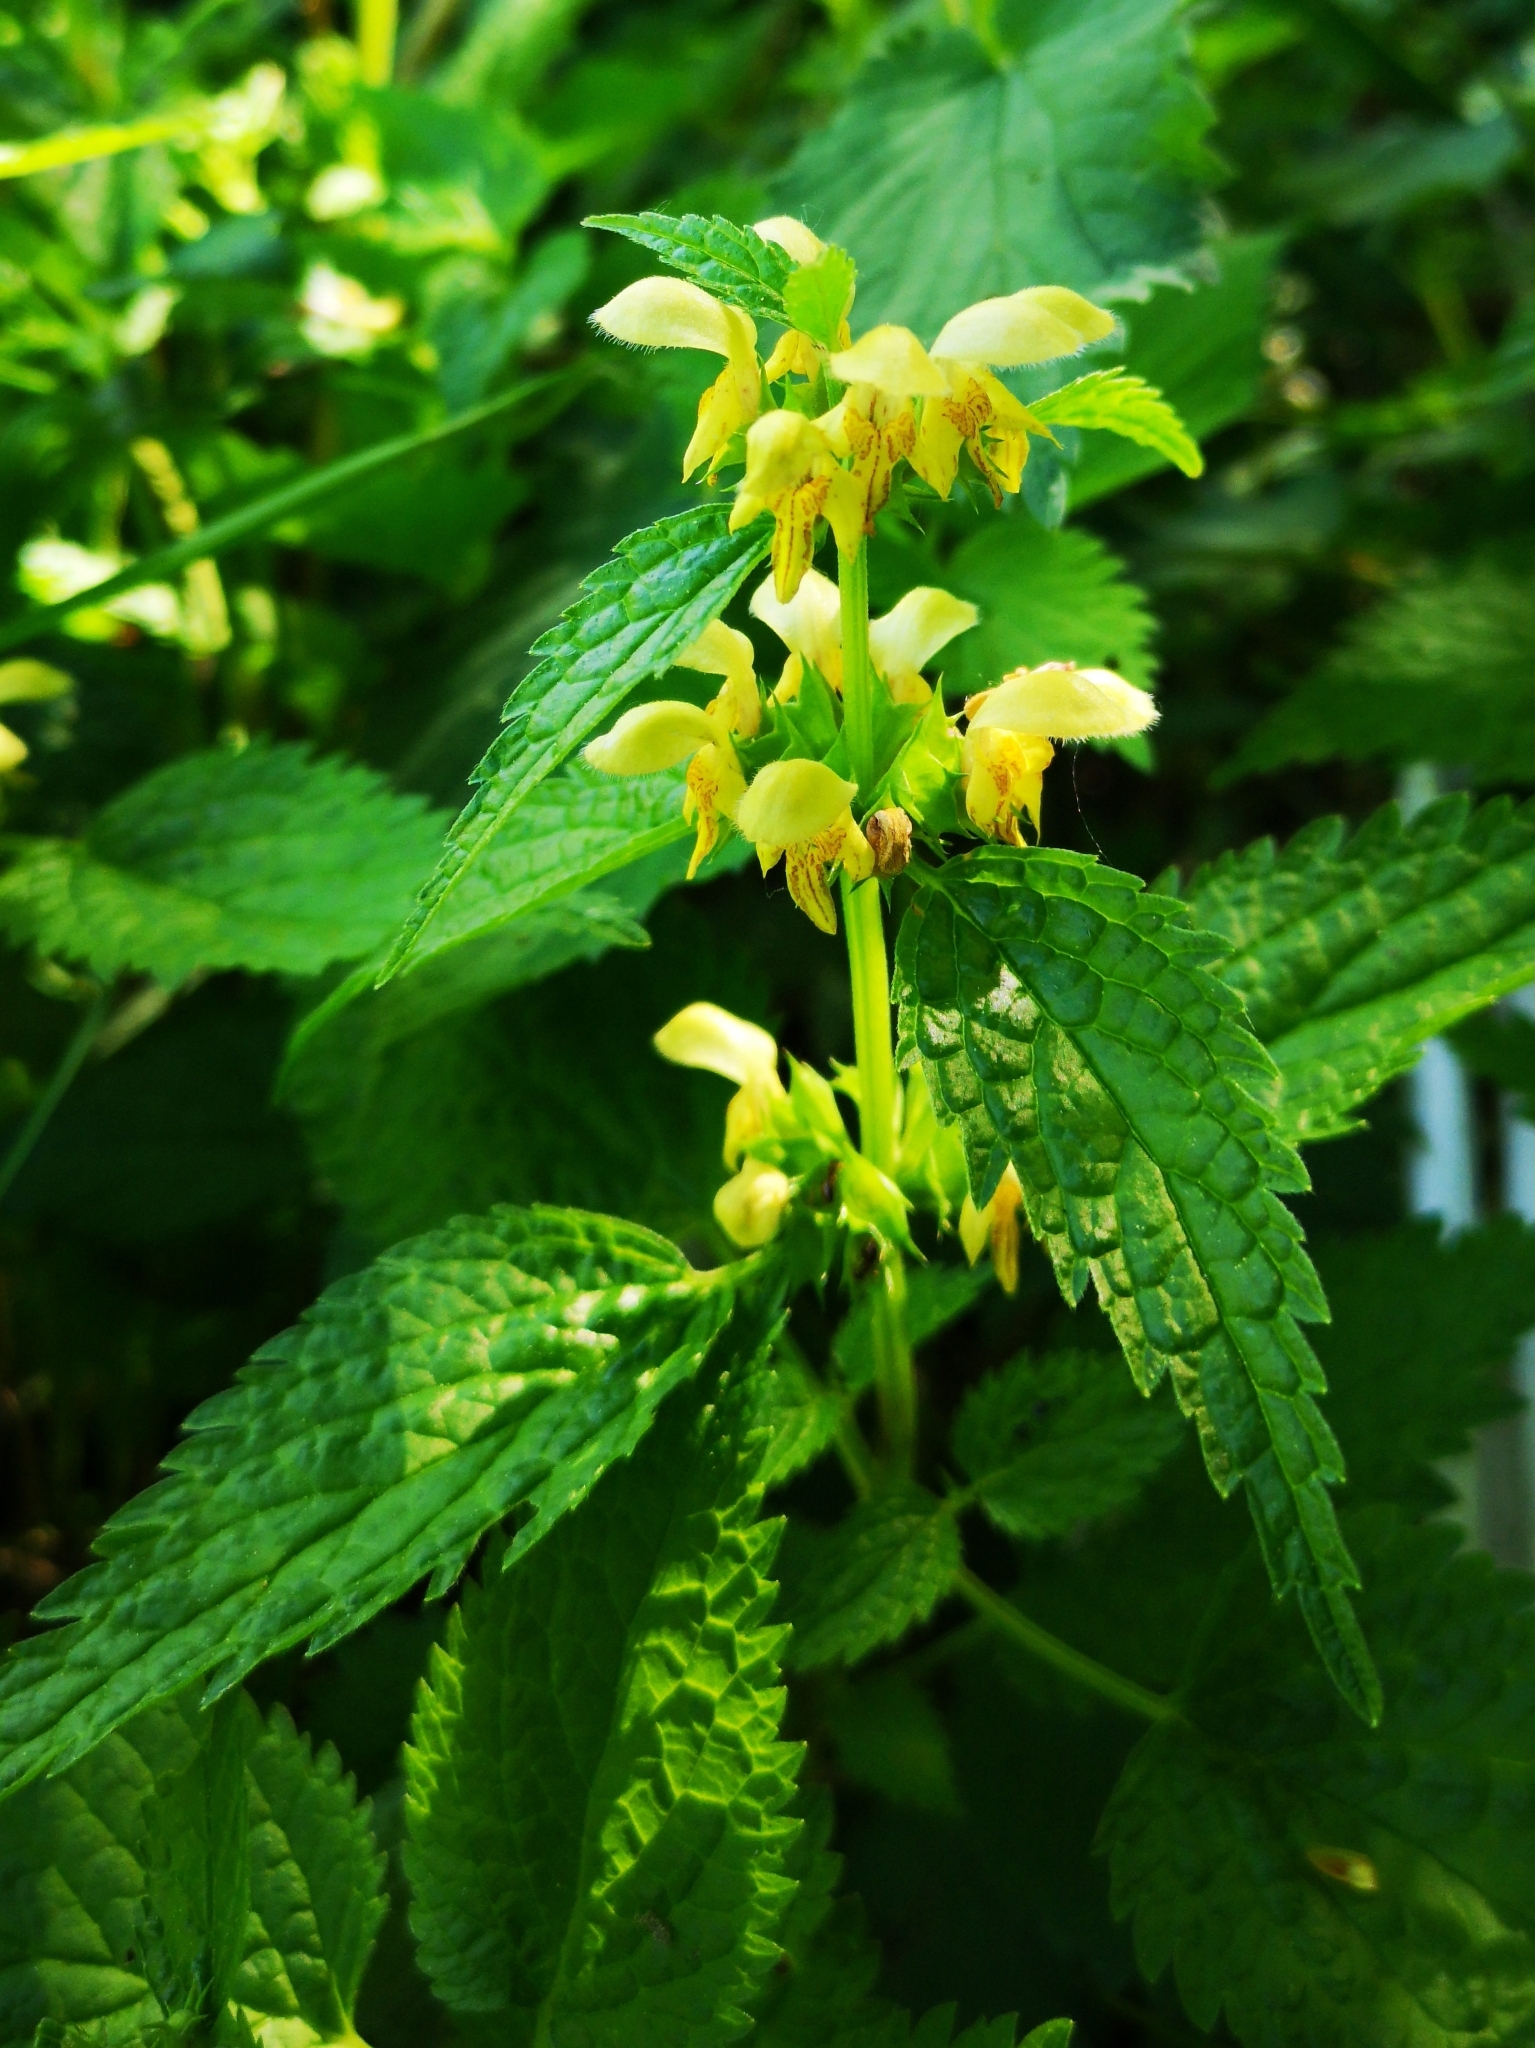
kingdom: Plantae
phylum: Tracheophyta
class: Magnoliopsida
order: Lamiales
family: Lamiaceae
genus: Lamium
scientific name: Lamium galeobdolon
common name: Yellow archangel
